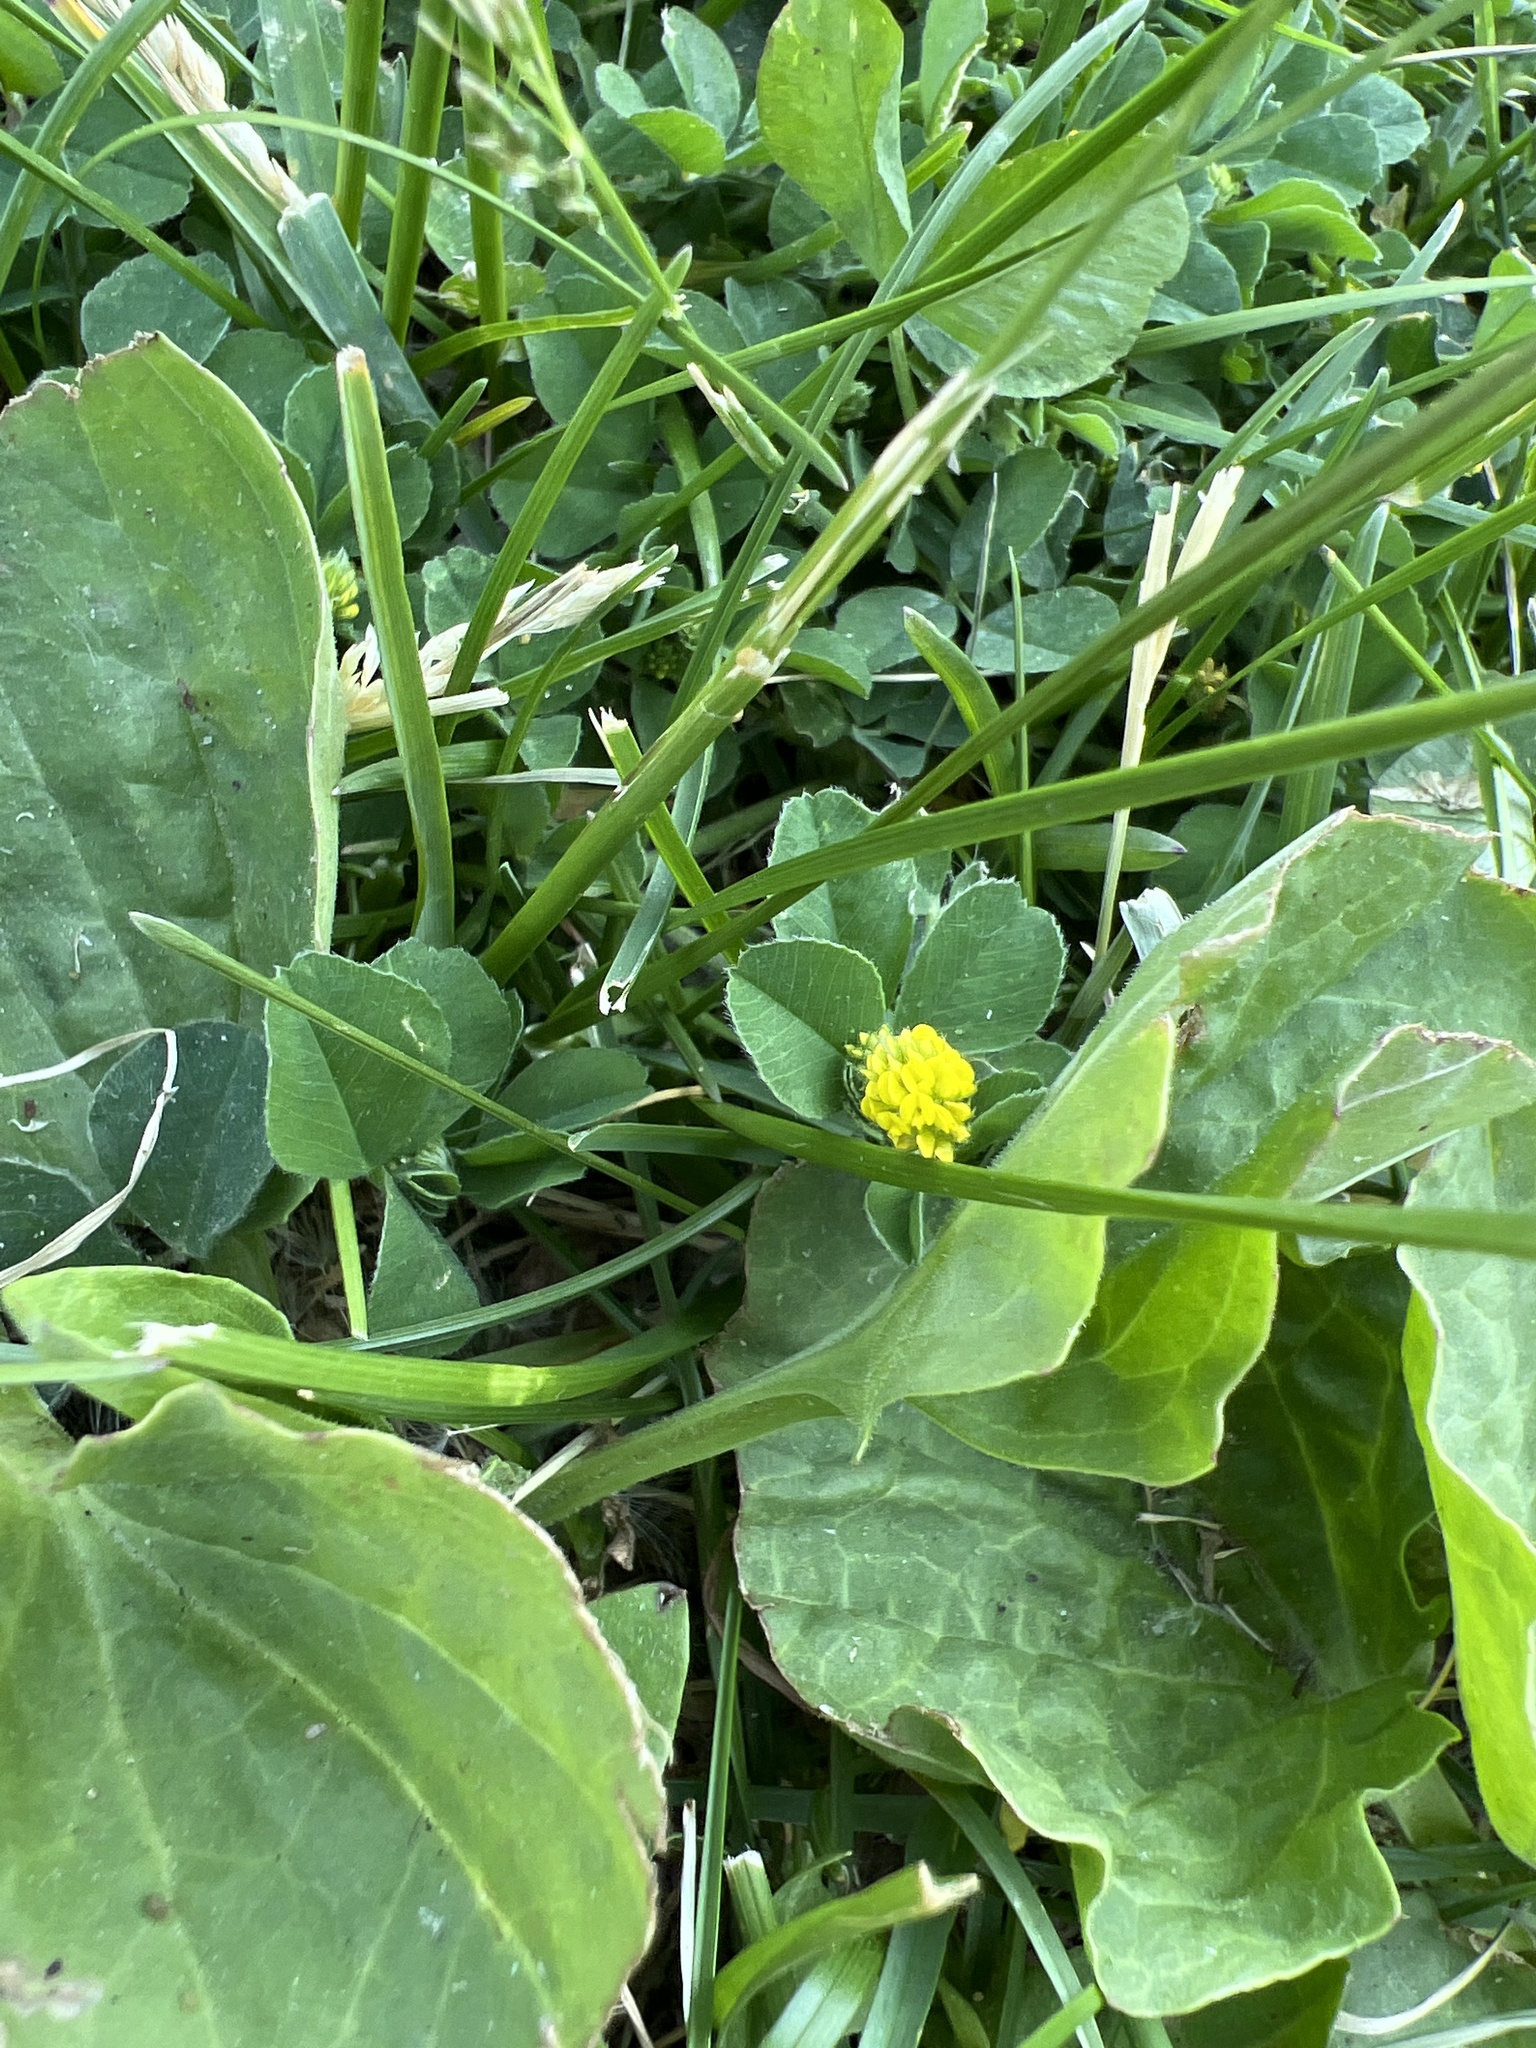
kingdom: Plantae
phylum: Tracheophyta
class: Magnoliopsida
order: Fabales
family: Fabaceae
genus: Medicago
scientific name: Medicago lupulina
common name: Black medick
